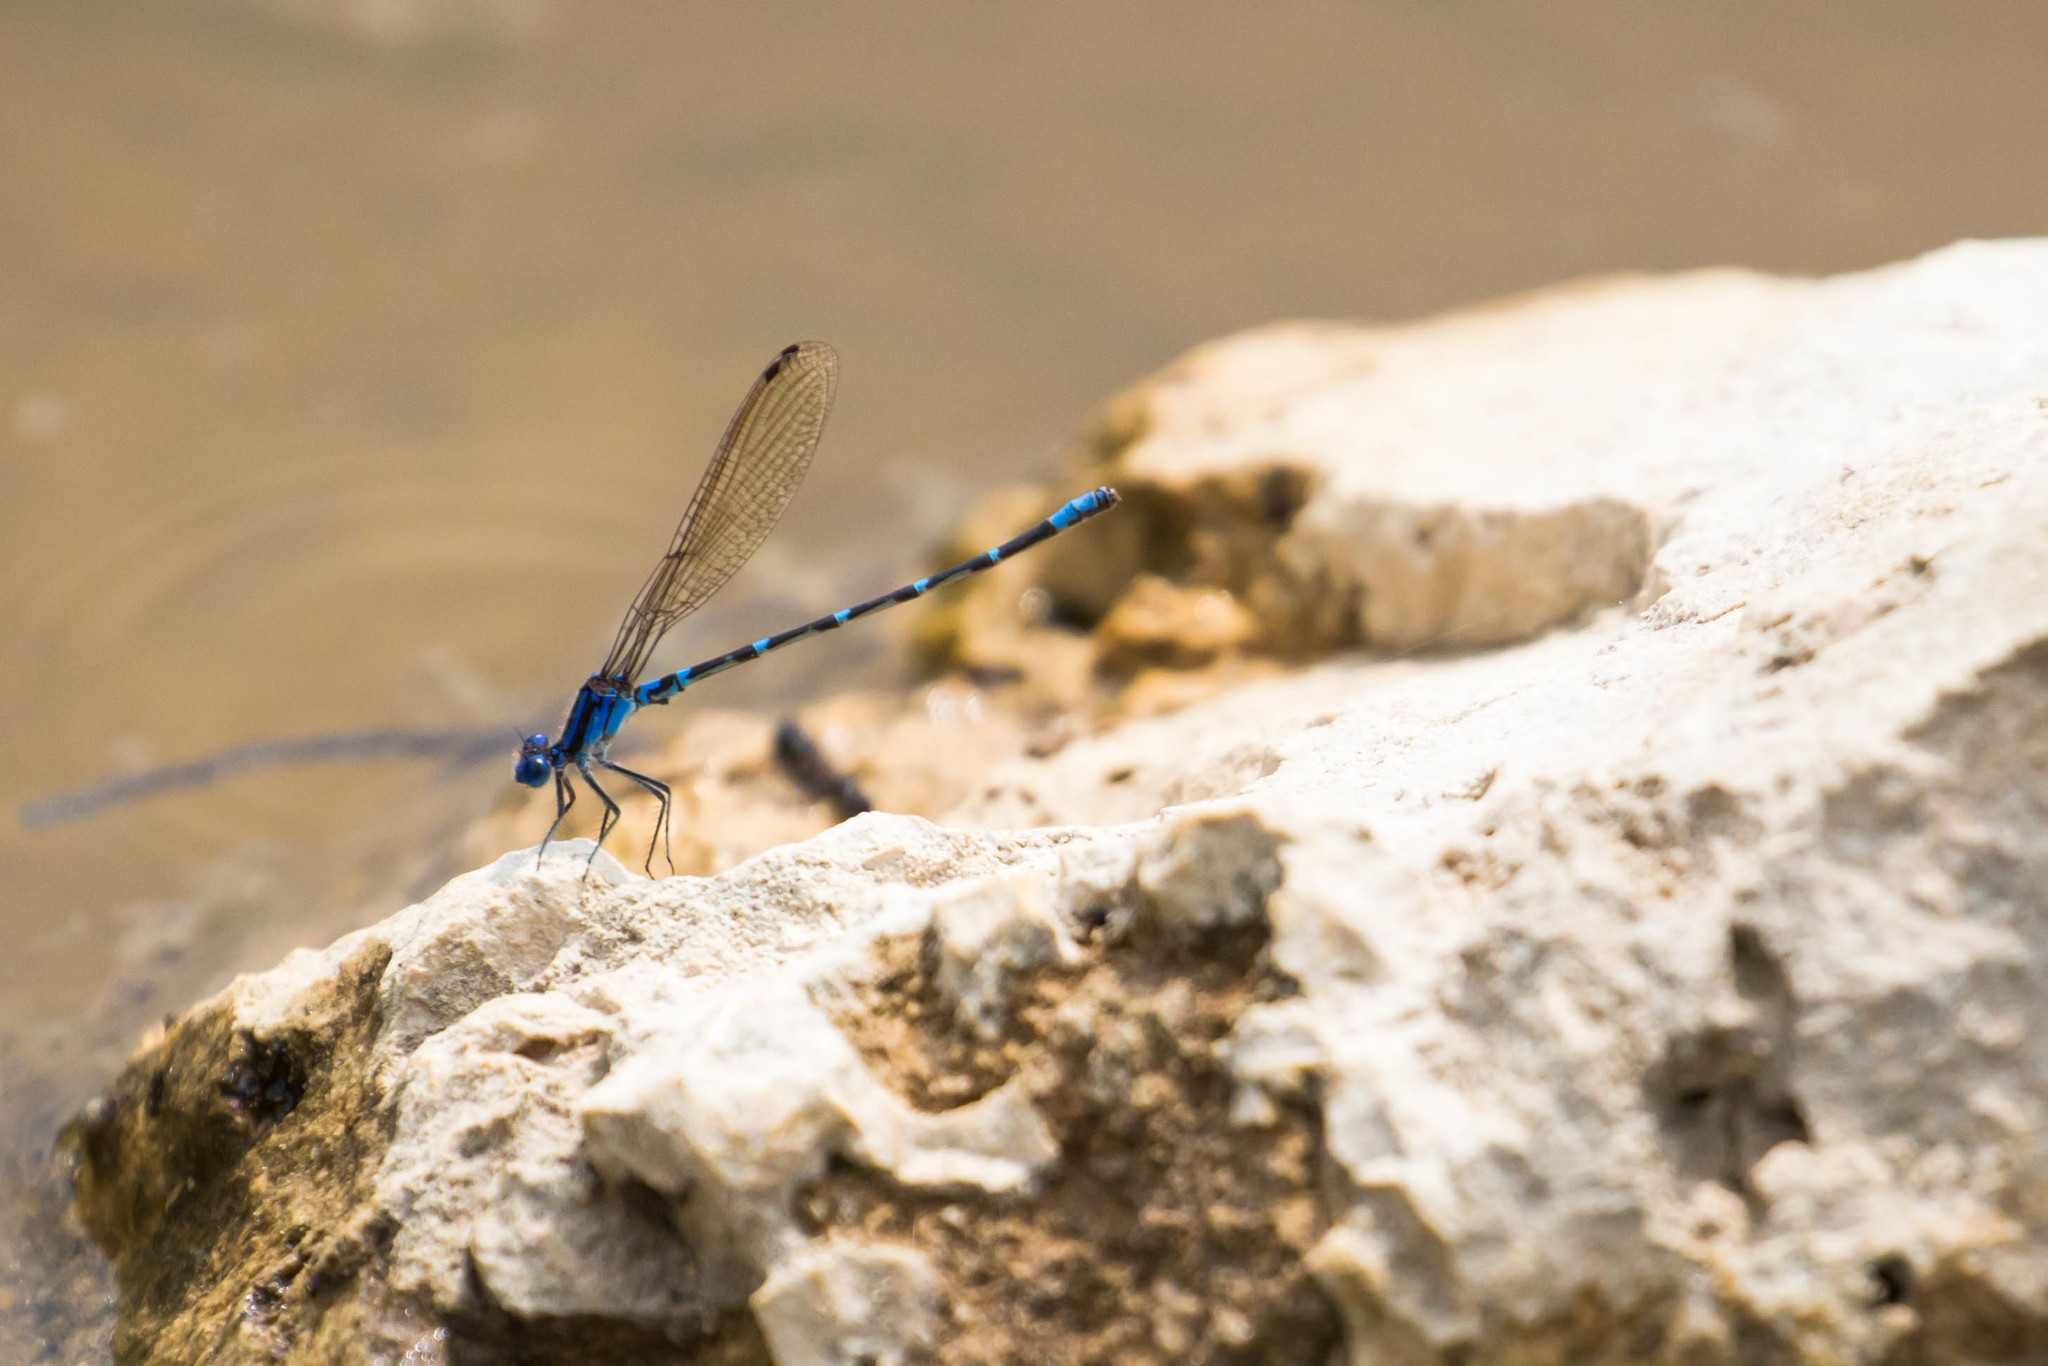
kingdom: Animalia
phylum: Arthropoda
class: Insecta
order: Odonata
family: Coenagrionidae
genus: Argia
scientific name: Argia sedula
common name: Blue-ringed dancer
